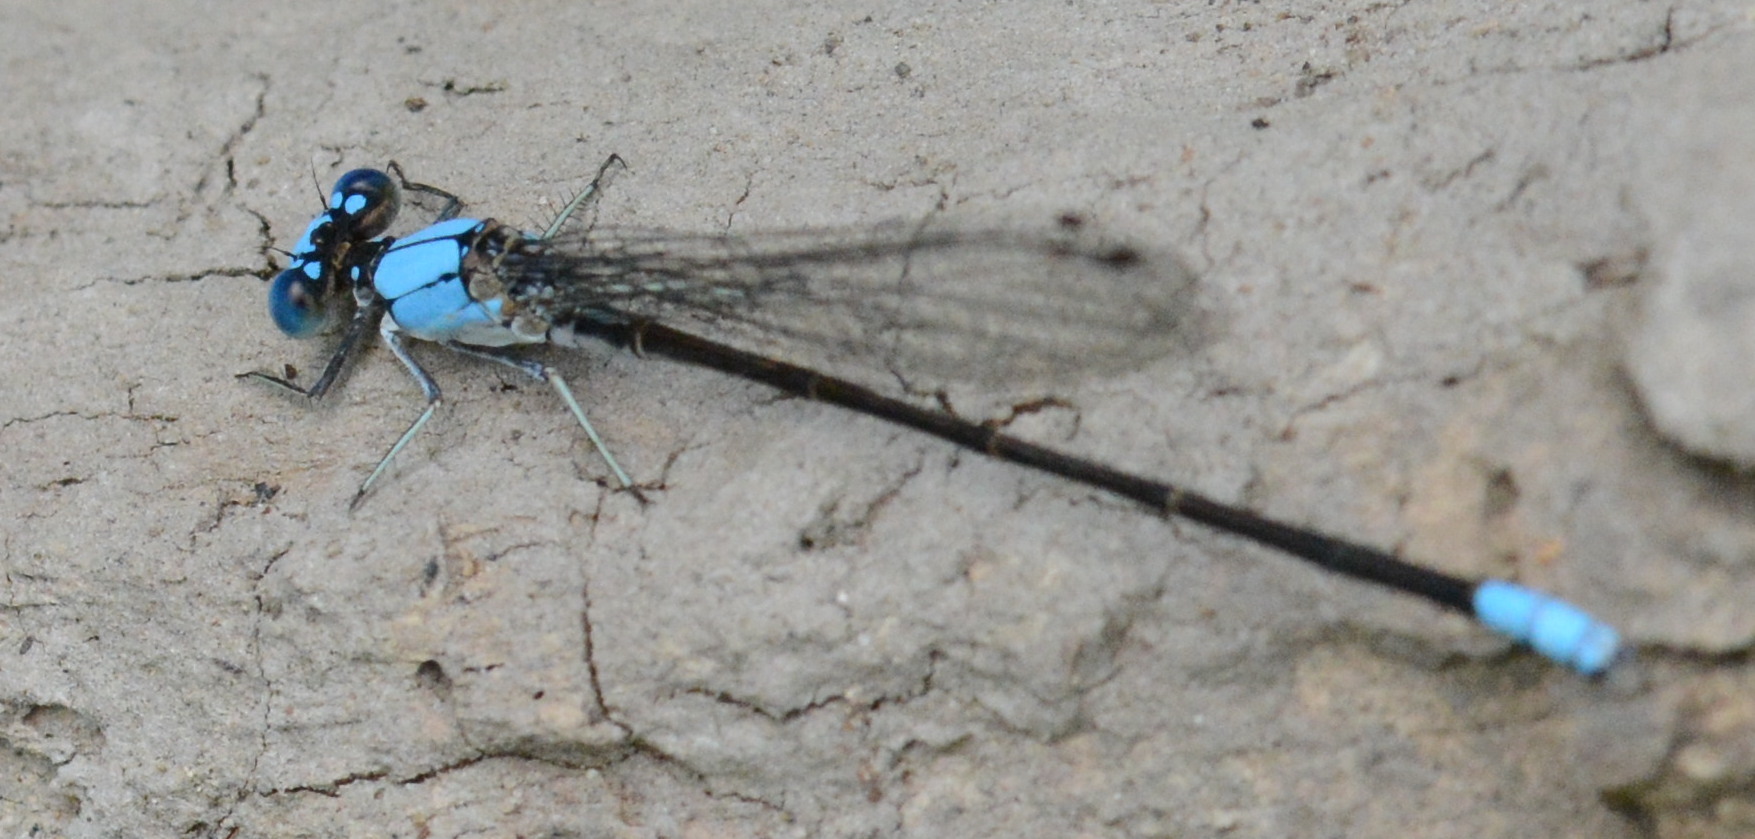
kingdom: Animalia
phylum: Arthropoda
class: Insecta
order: Odonata
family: Coenagrionidae
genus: Argia
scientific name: Argia apicalis
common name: Blue-fronted dancer
